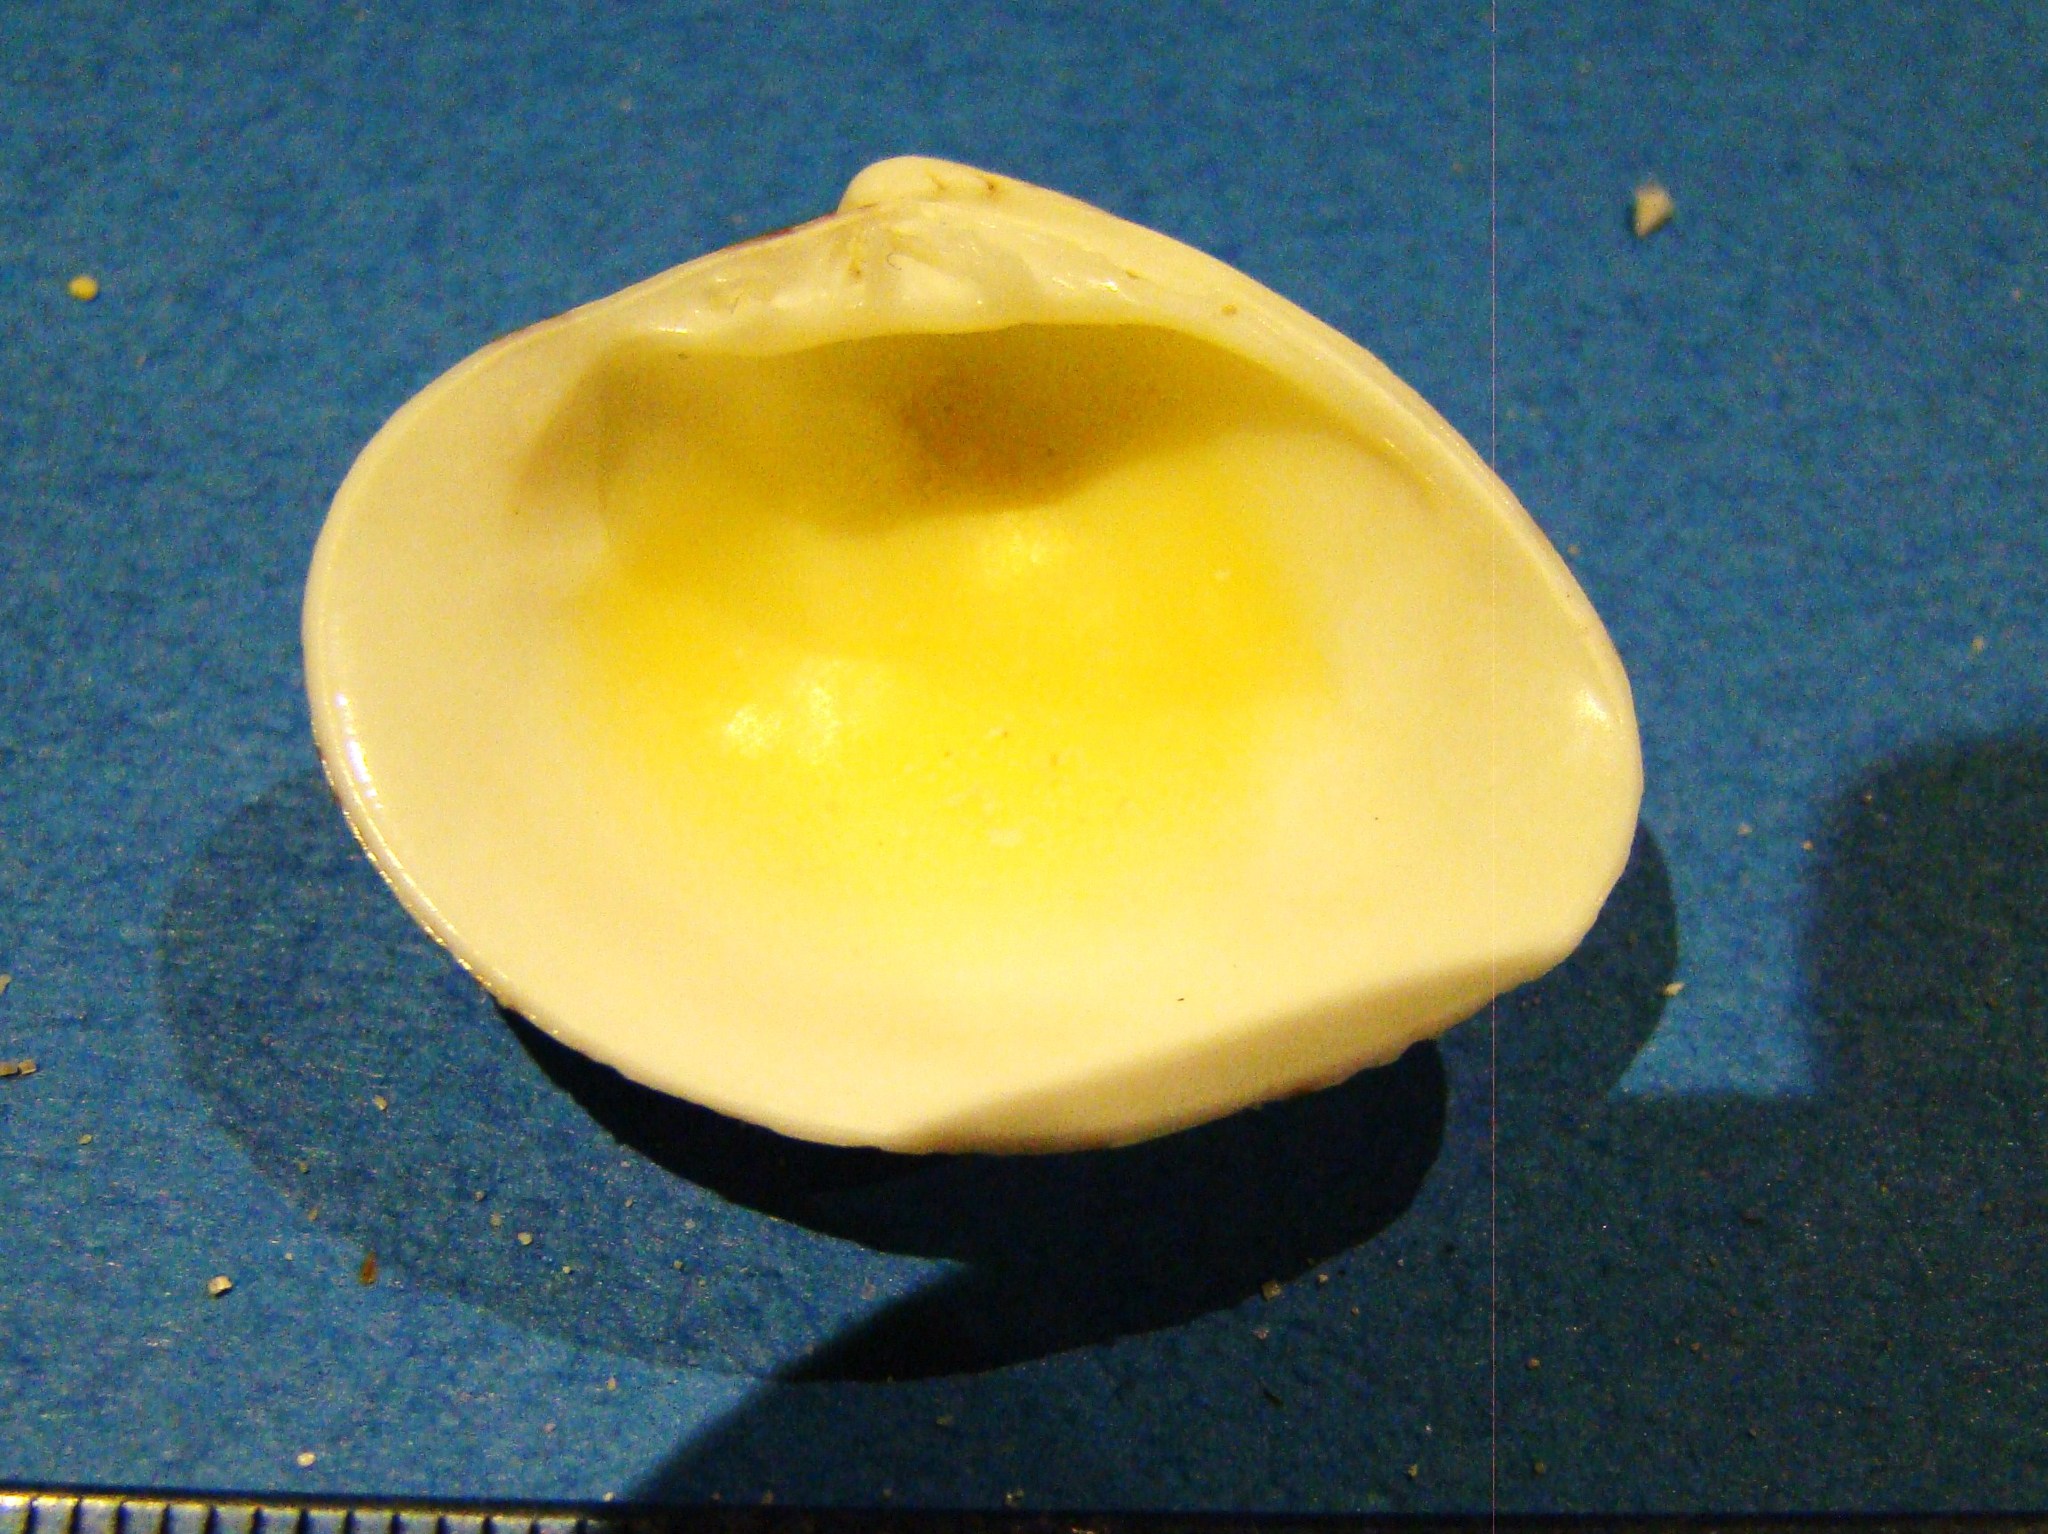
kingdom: Animalia
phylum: Mollusca
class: Bivalvia
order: Venerida
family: Veneridae
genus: Lioconcha
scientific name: Lioconcha ornata
